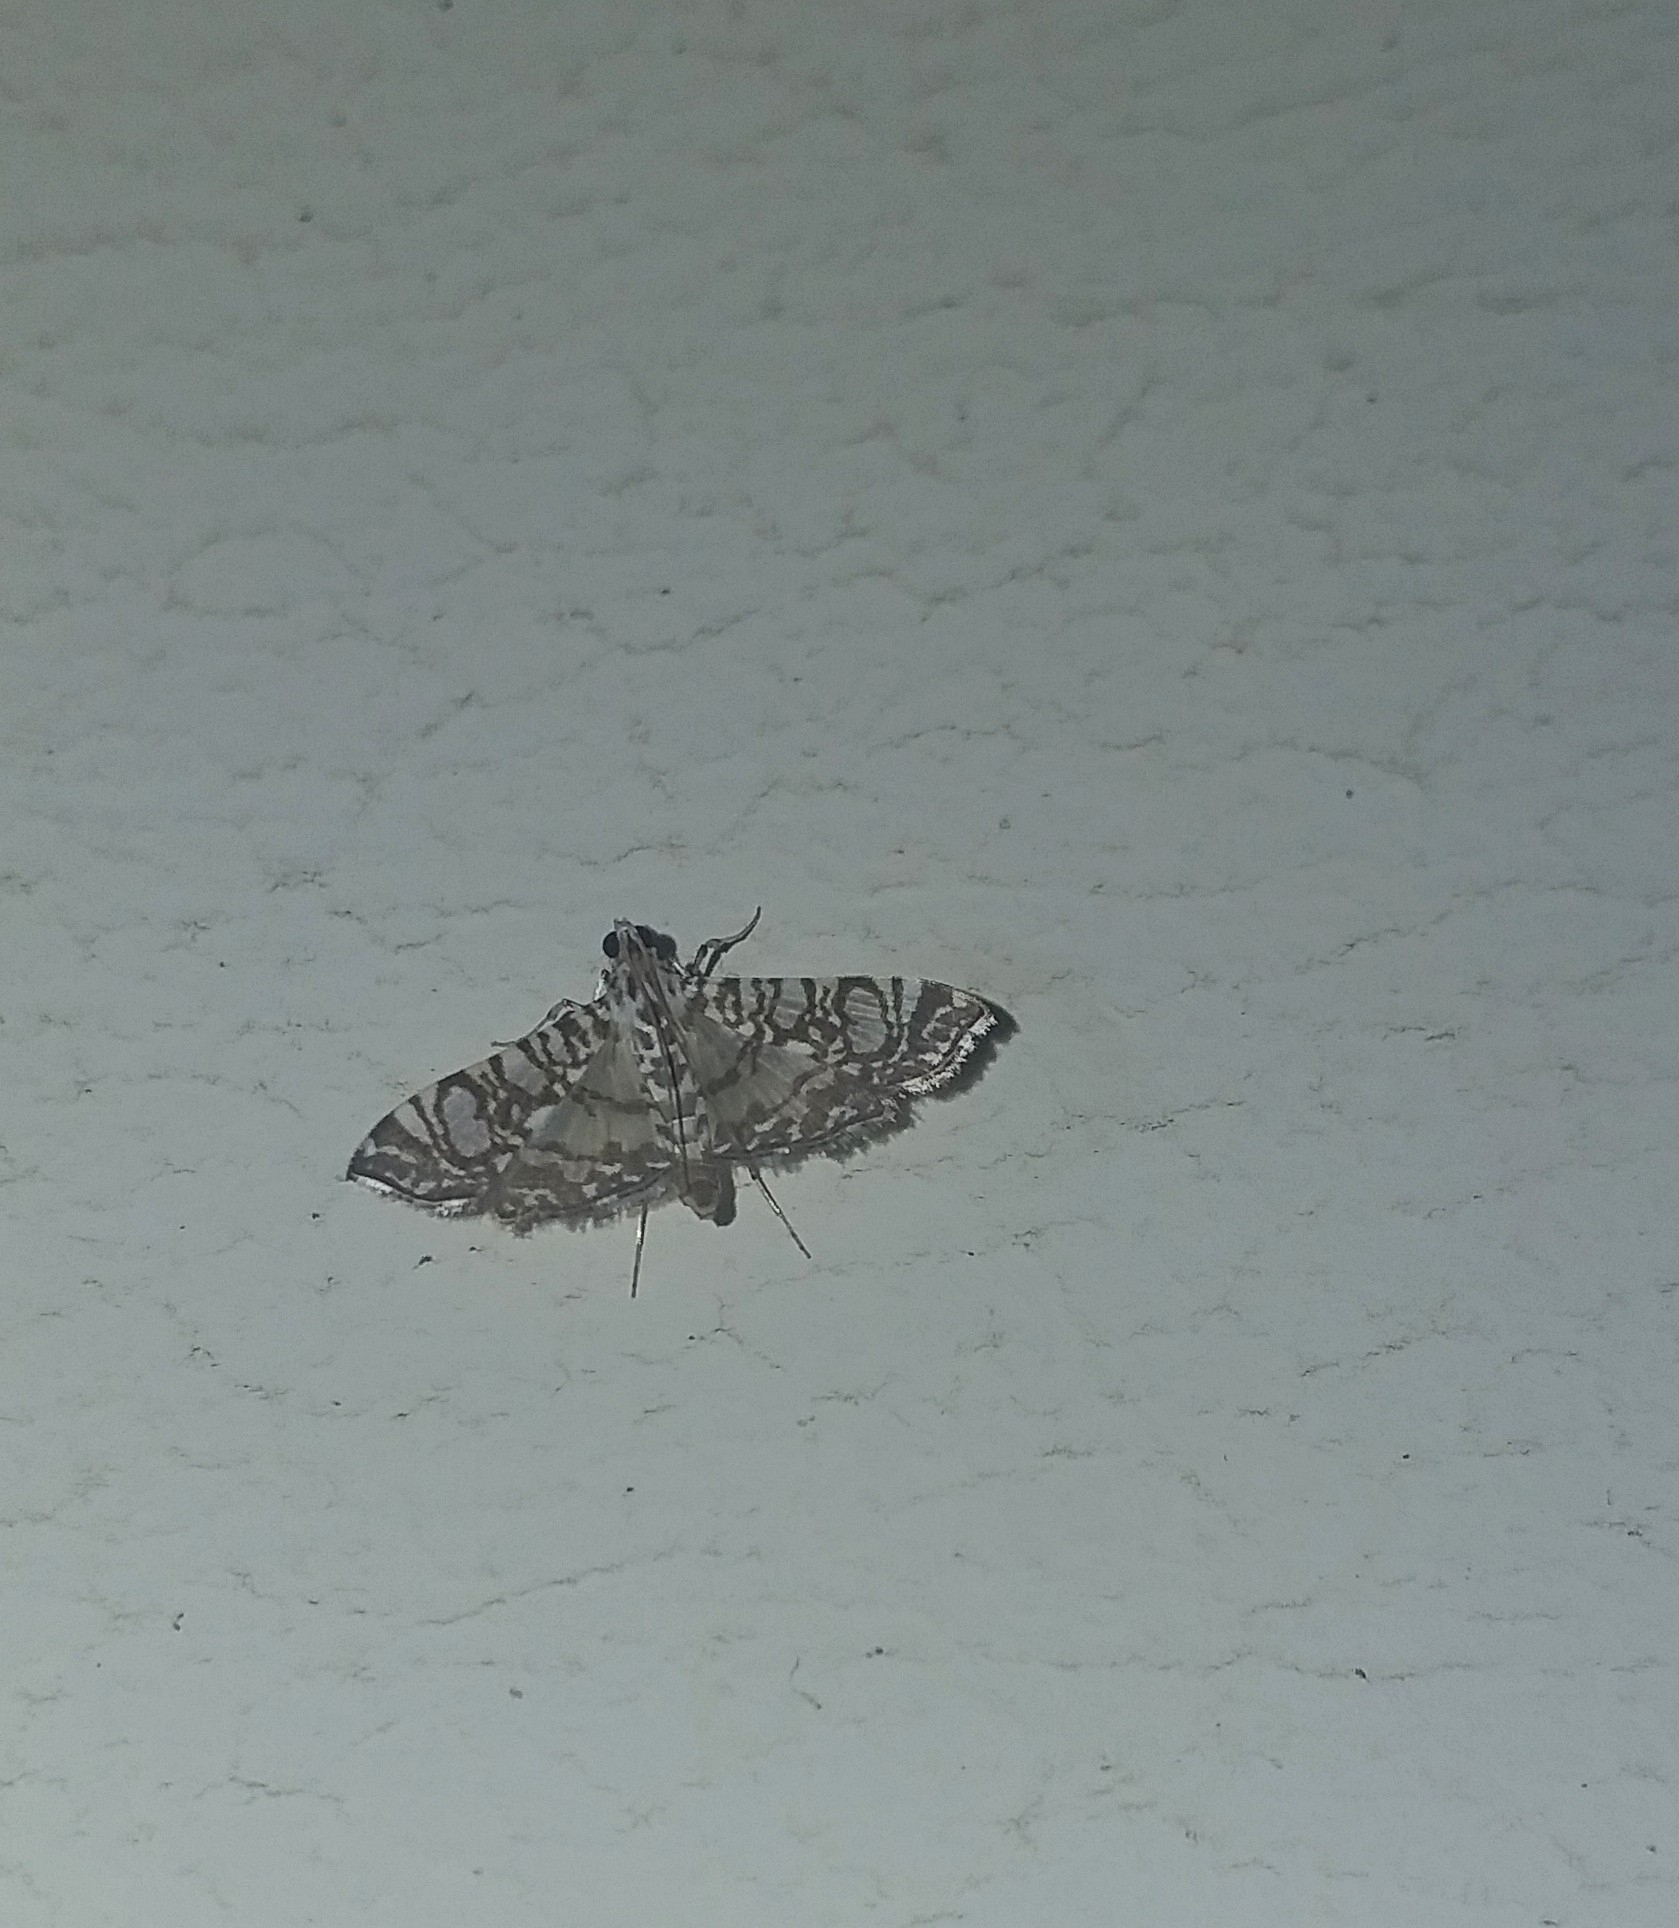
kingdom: Animalia
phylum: Arthropoda
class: Insecta
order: Lepidoptera
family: Crambidae
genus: Glyphodes
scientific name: Glyphodes onychinalis
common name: Swan plant moth
